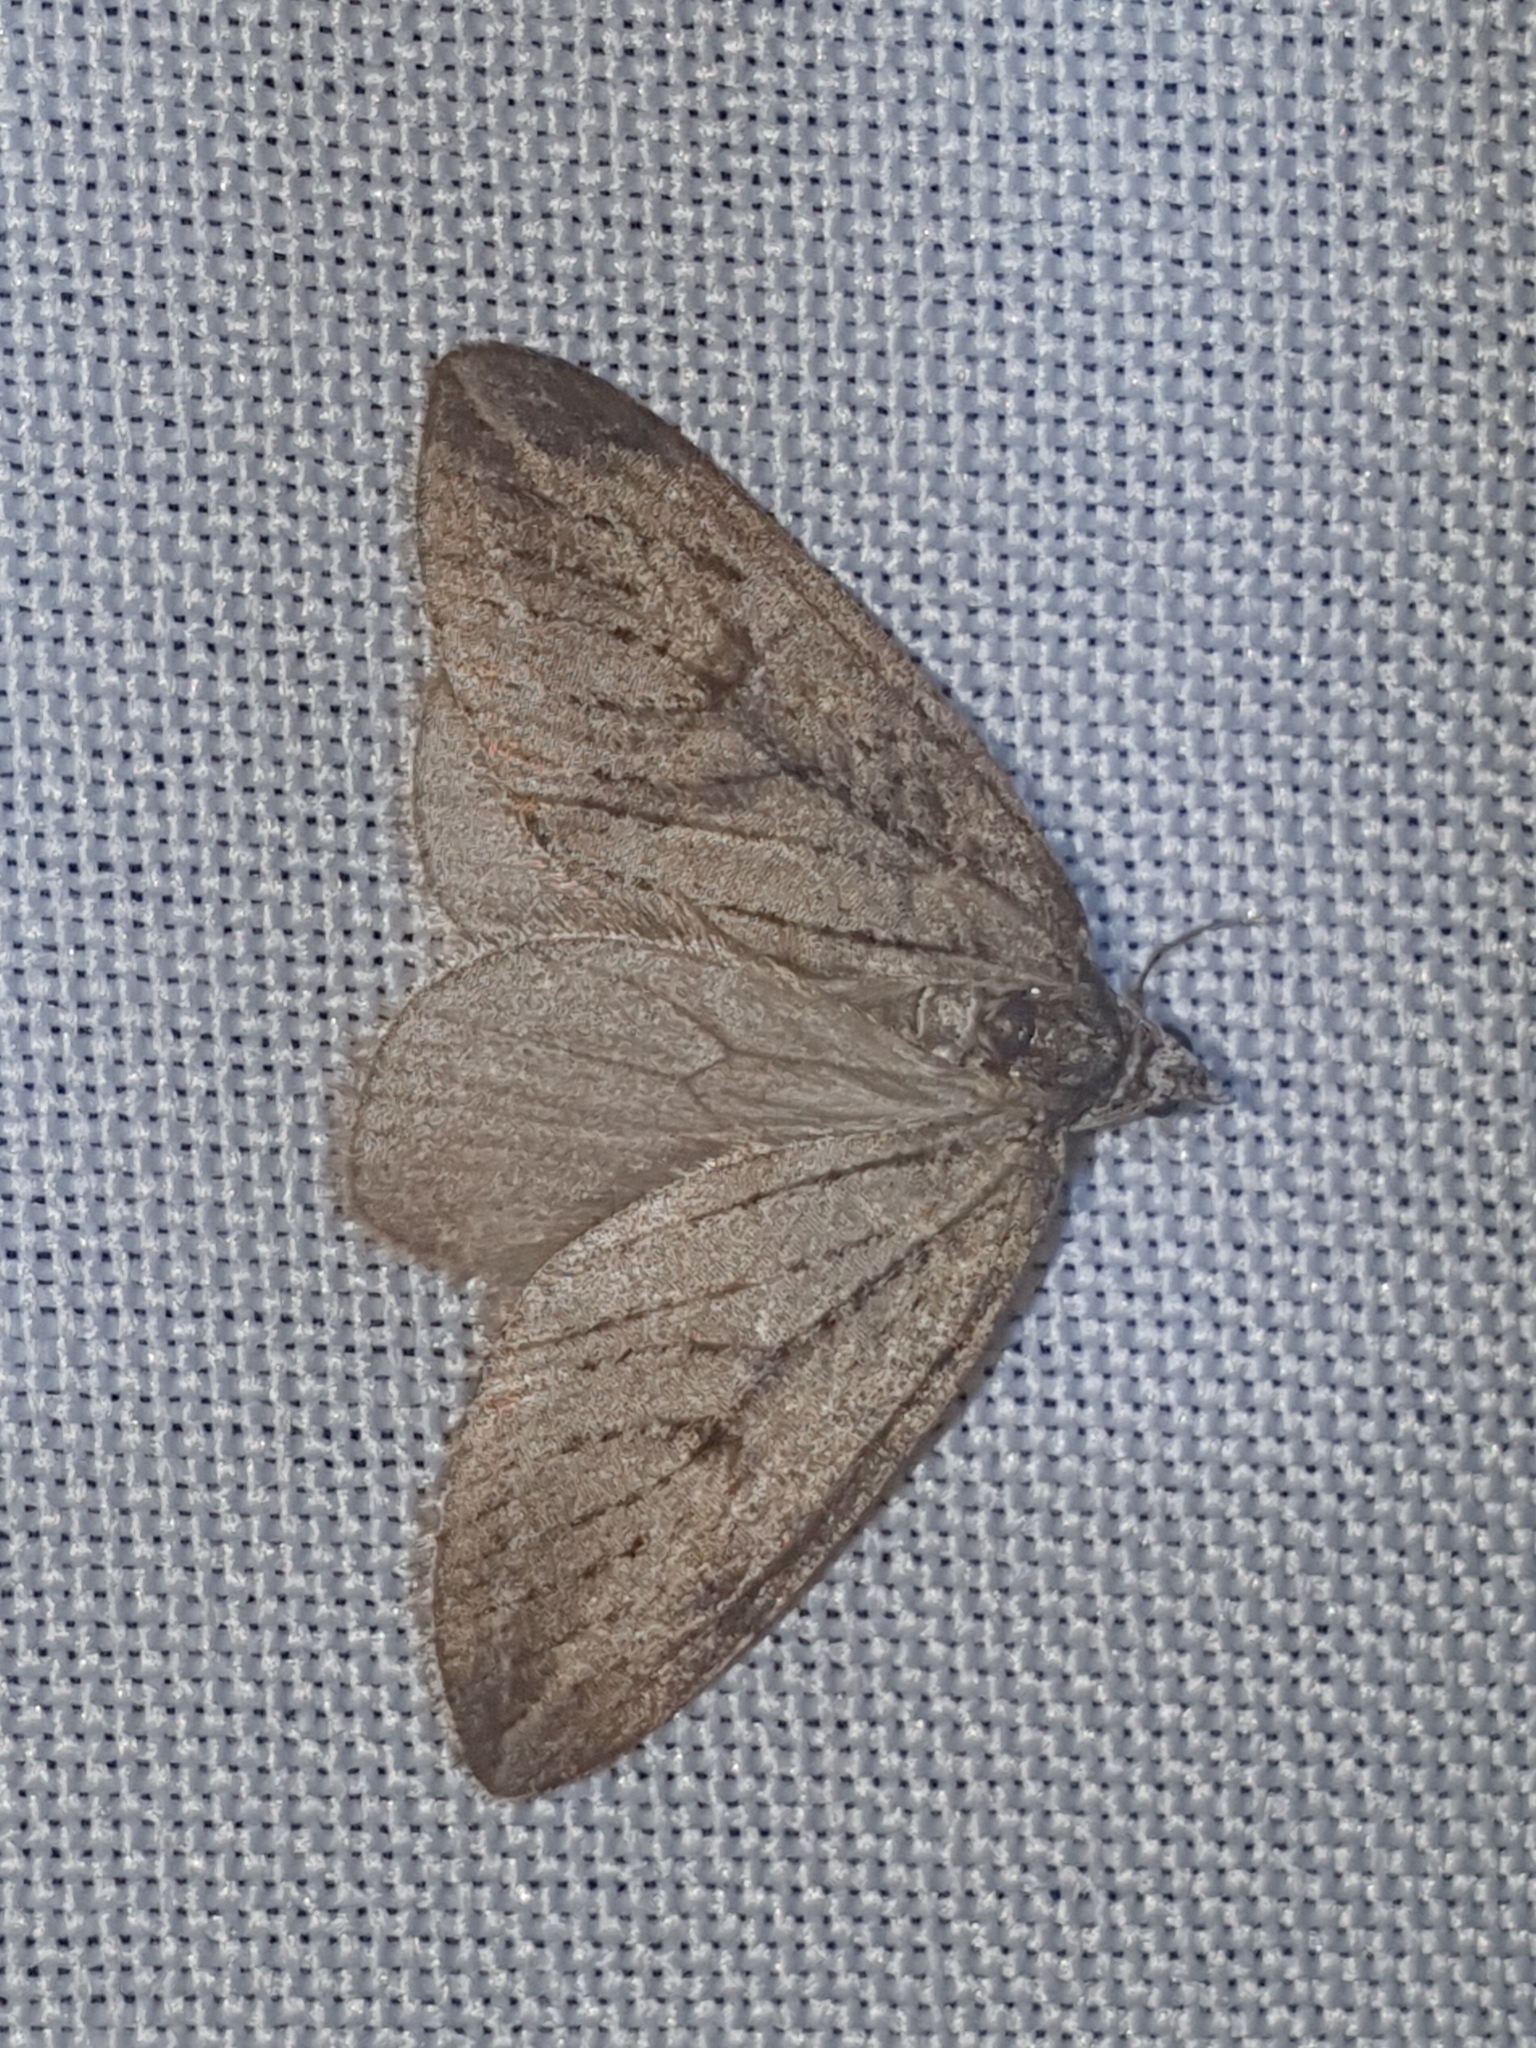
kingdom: Animalia
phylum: Arthropoda
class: Insecta
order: Lepidoptera
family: Geometridae
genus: Pachycnemia
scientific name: Pachycnemia hippocastanaria
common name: Horse chestnut
